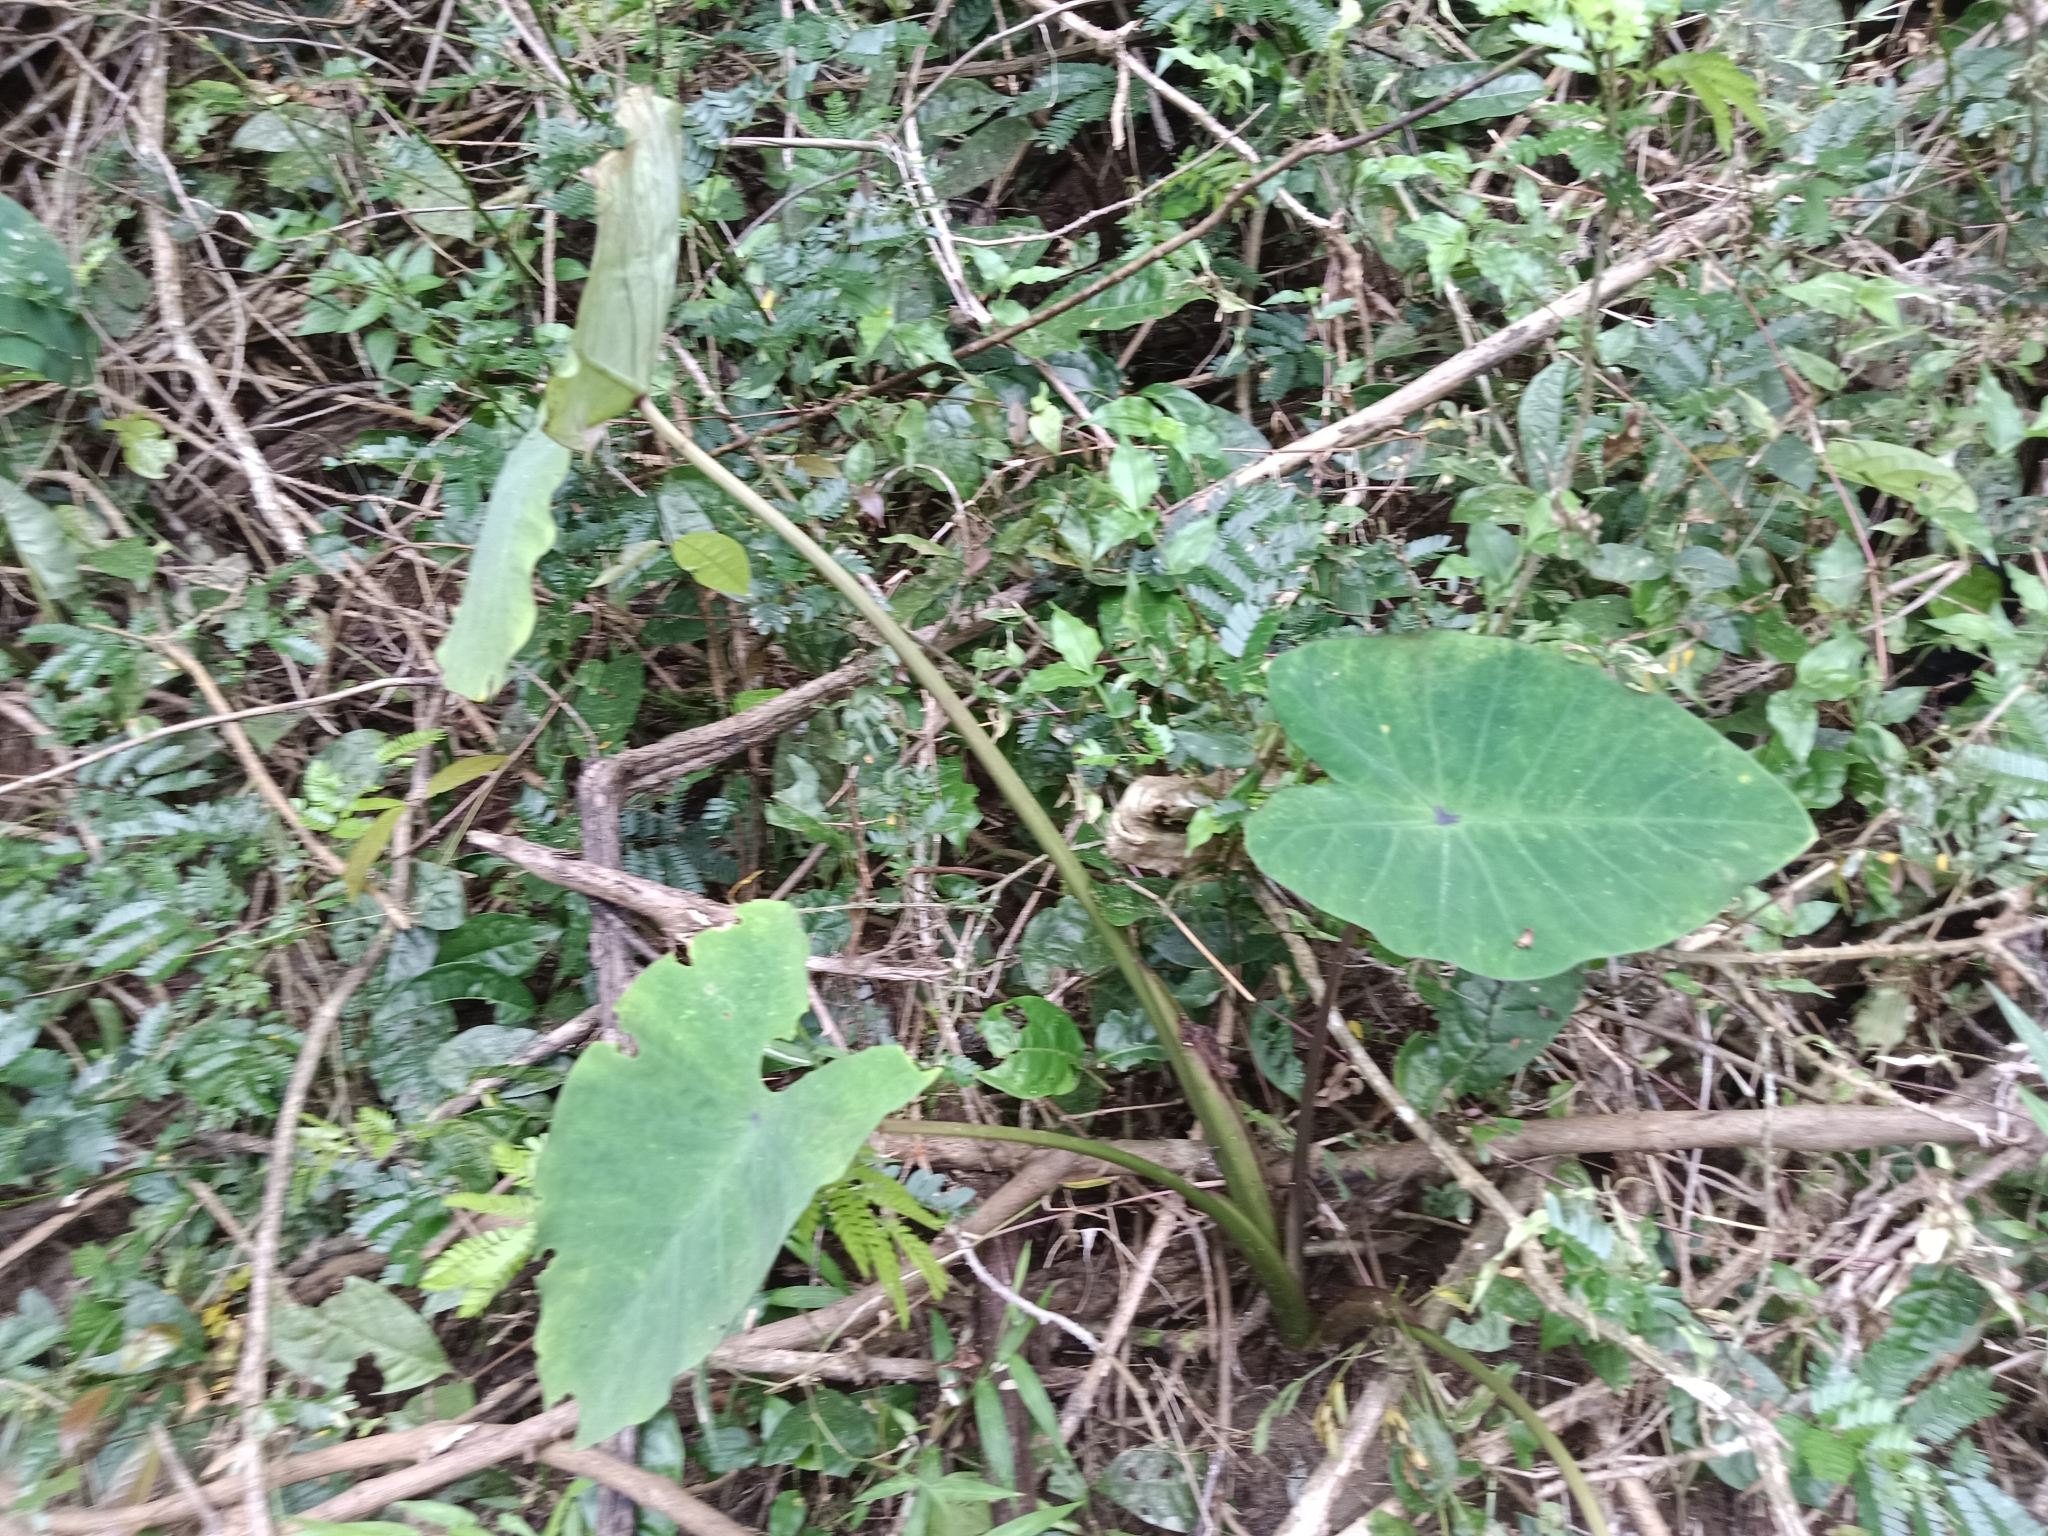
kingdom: Plantae
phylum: Tracheophyta
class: Liliopsida
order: Alismatales
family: Araceae
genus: Colocasia
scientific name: Colocasia esculenta
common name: Taro
